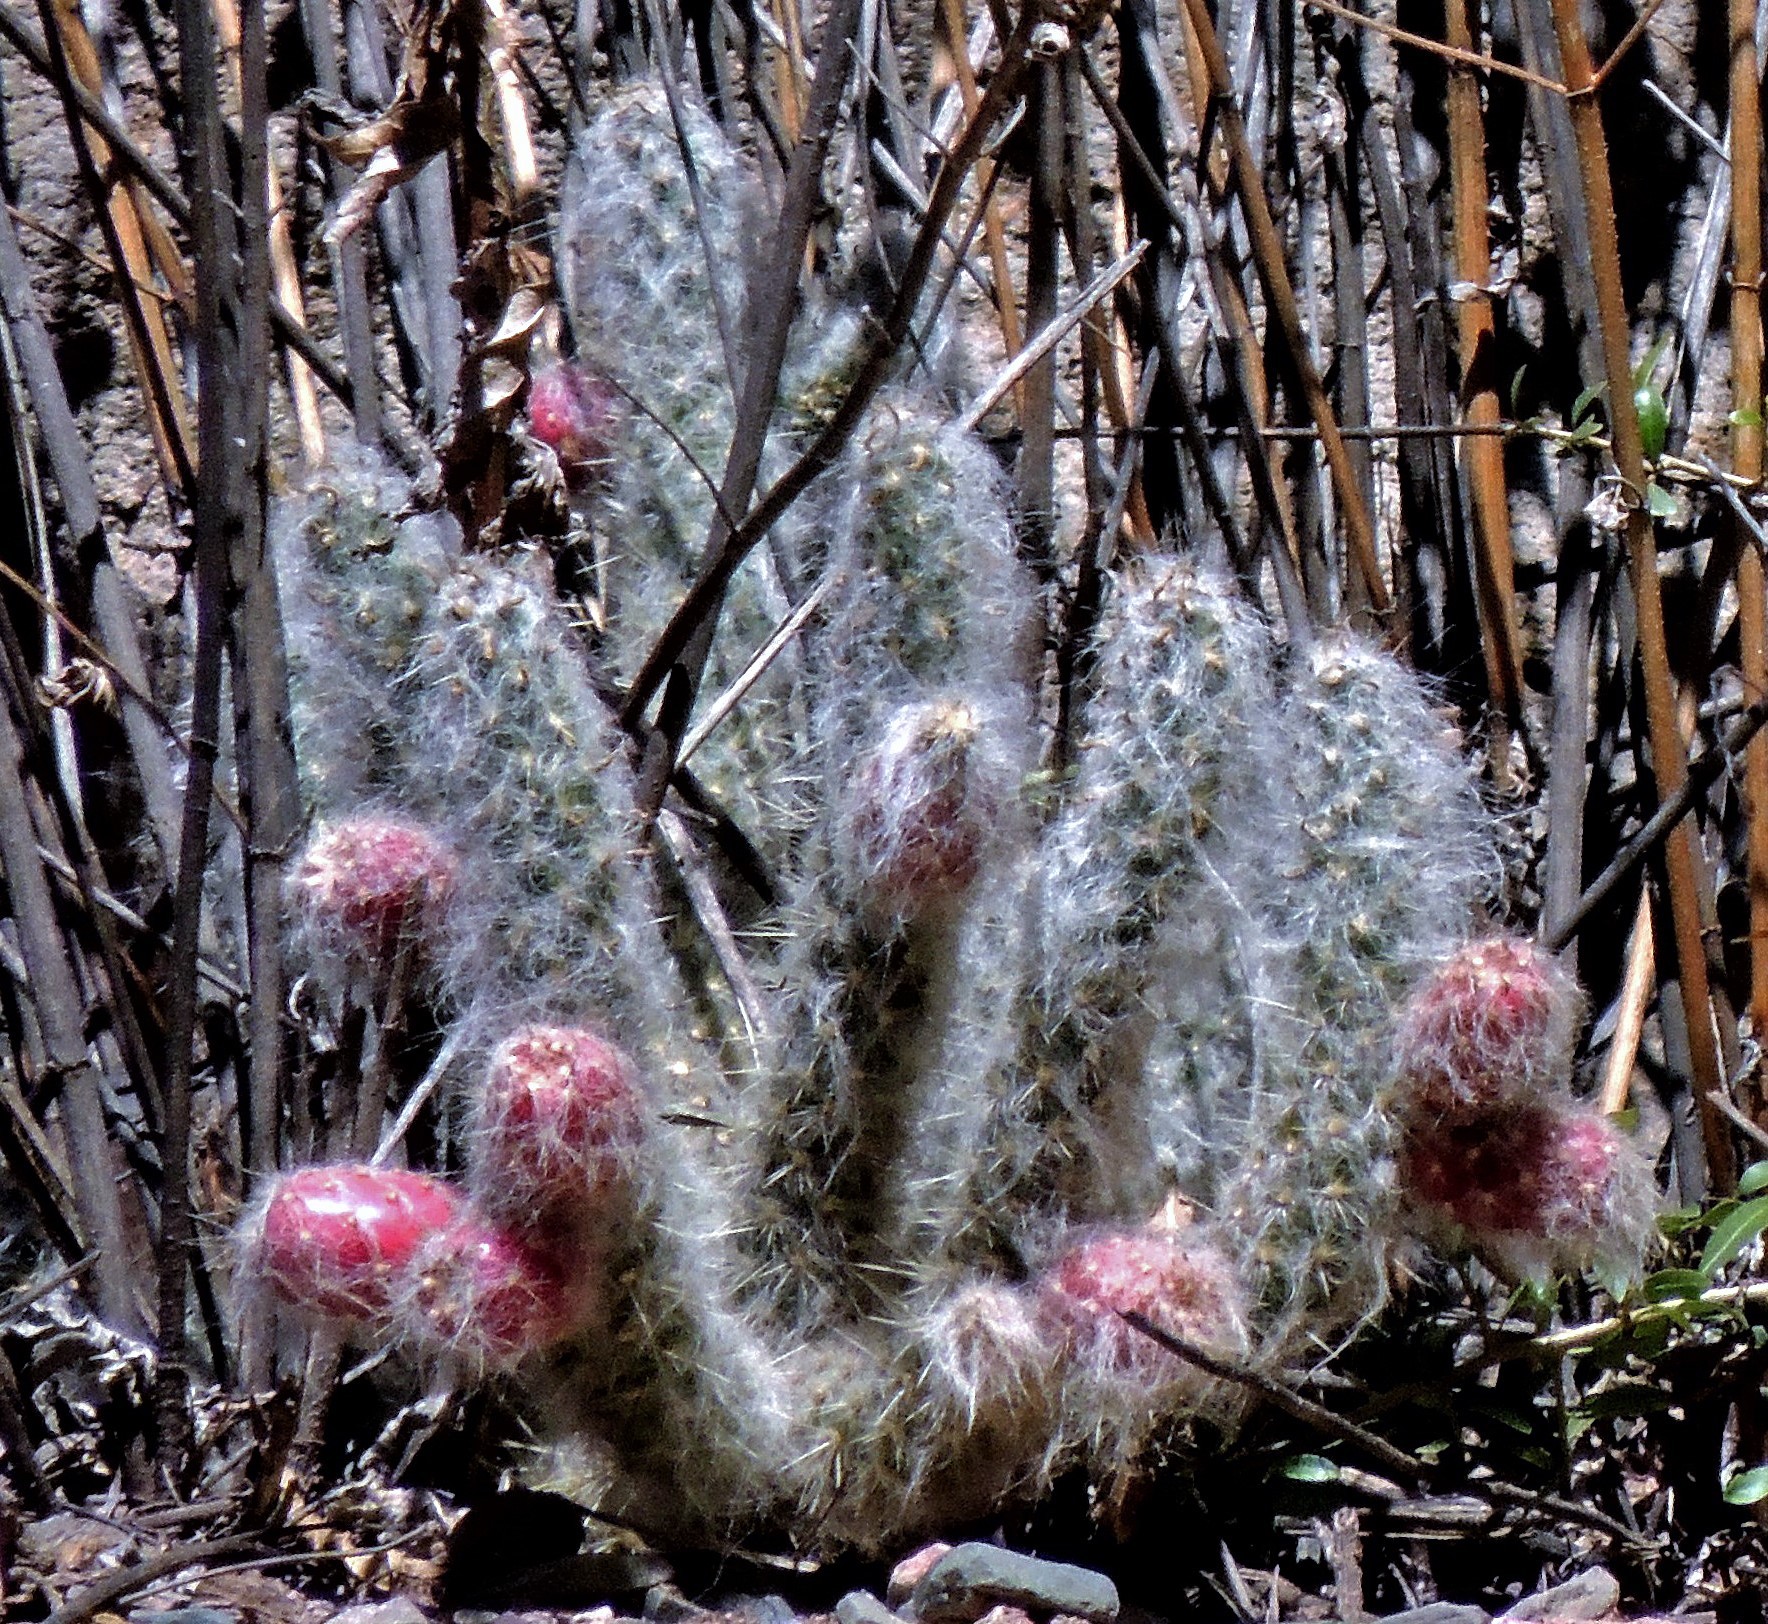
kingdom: Plantae
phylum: Tracheophyta
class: Magnoliopsida
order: Caryophyllales
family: Cactaceae
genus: Austrocylindropuntia
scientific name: Austrocylindropuntia vestita
